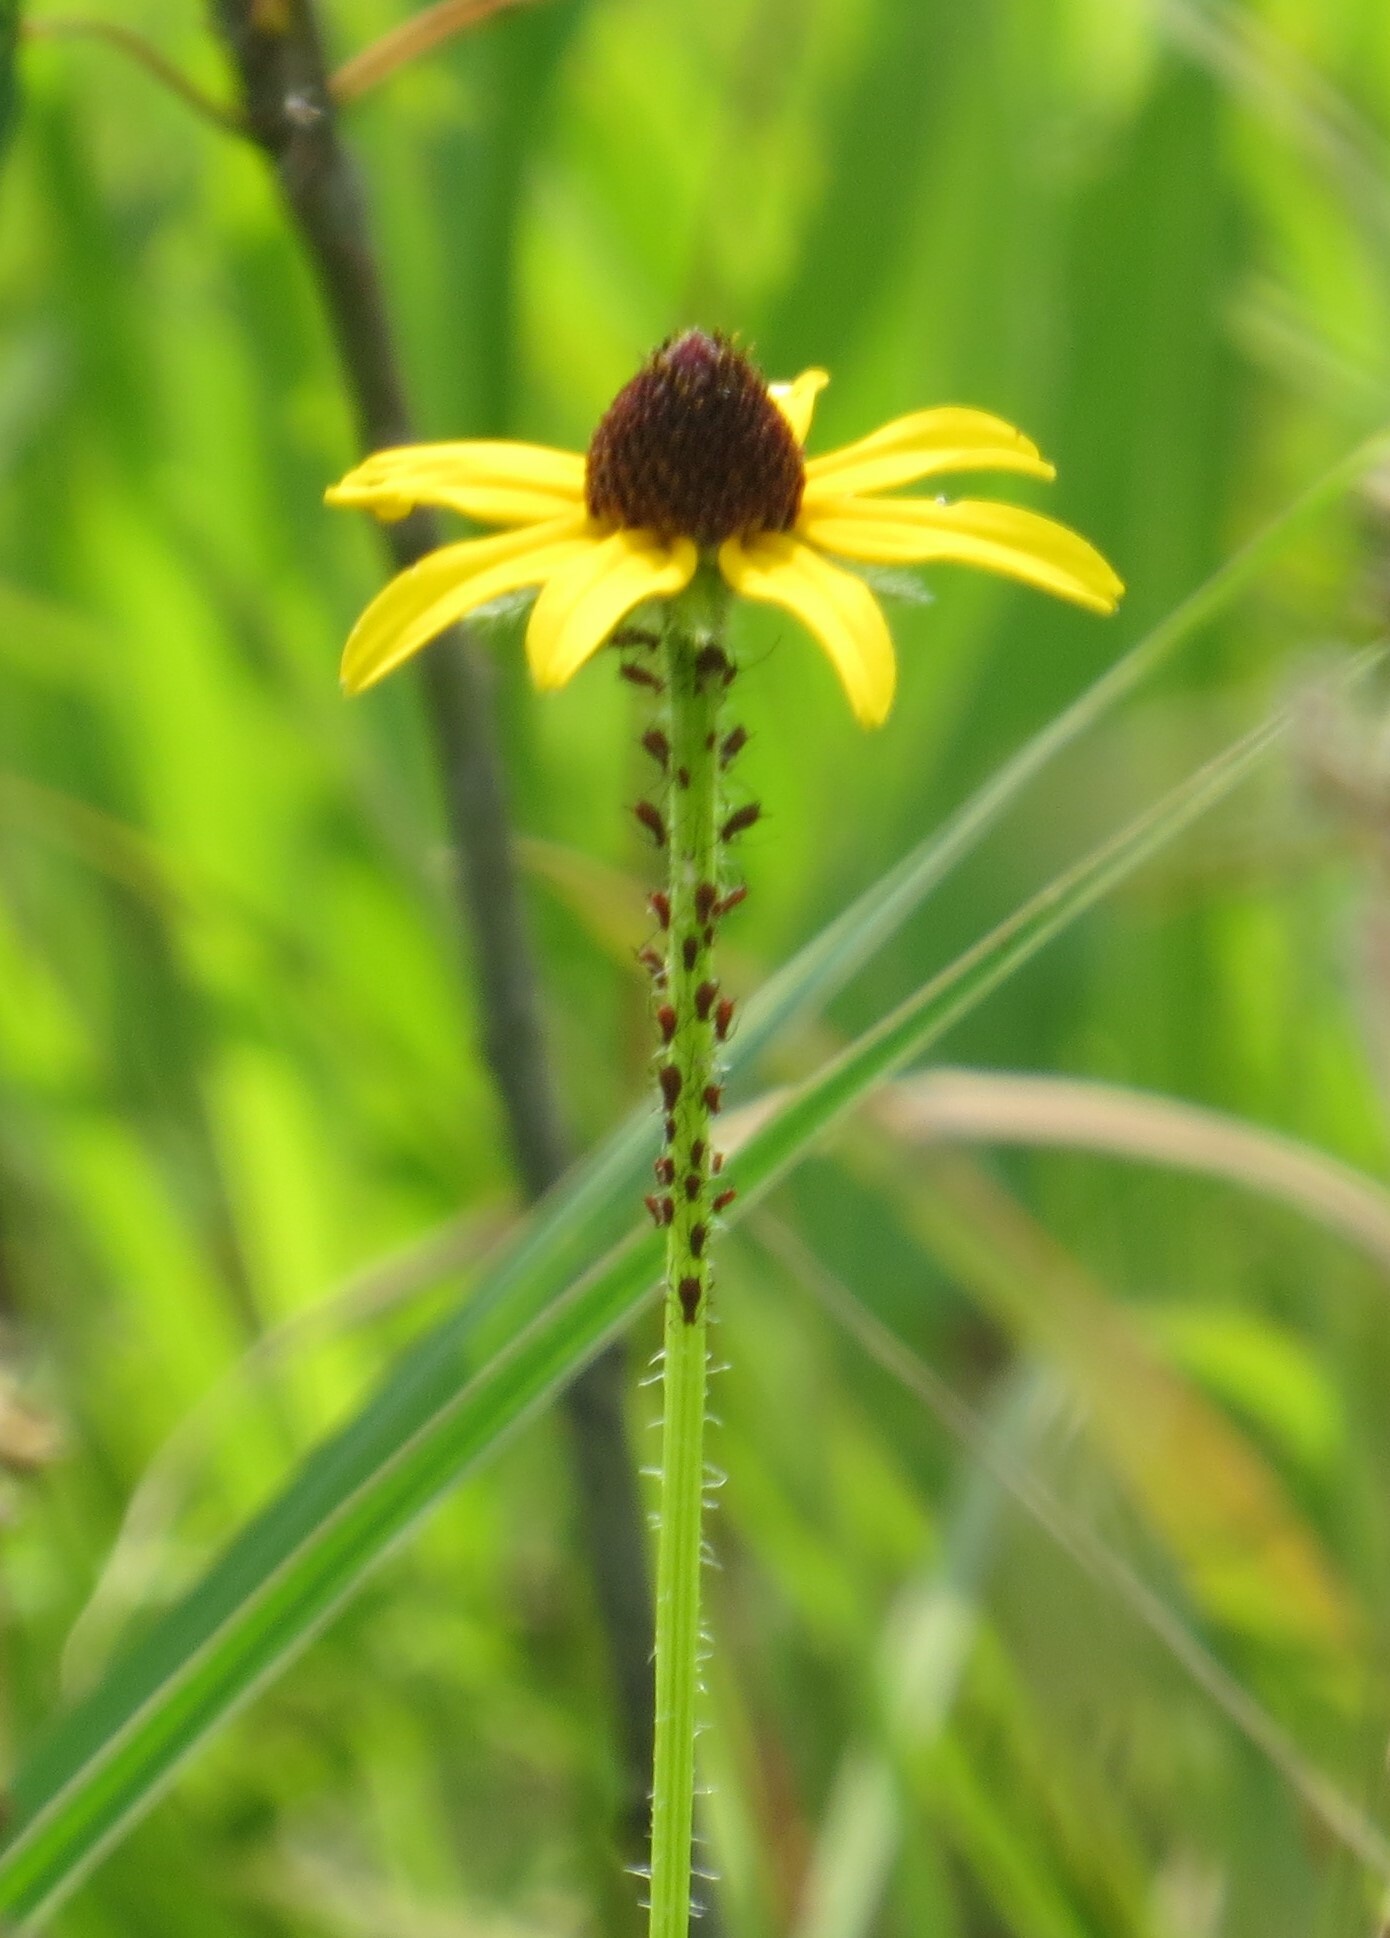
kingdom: Animalia
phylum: Arthropoda
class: Insecta
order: Hemiptera
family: Aphididae
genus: Uroleucon
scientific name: Uroleucon
